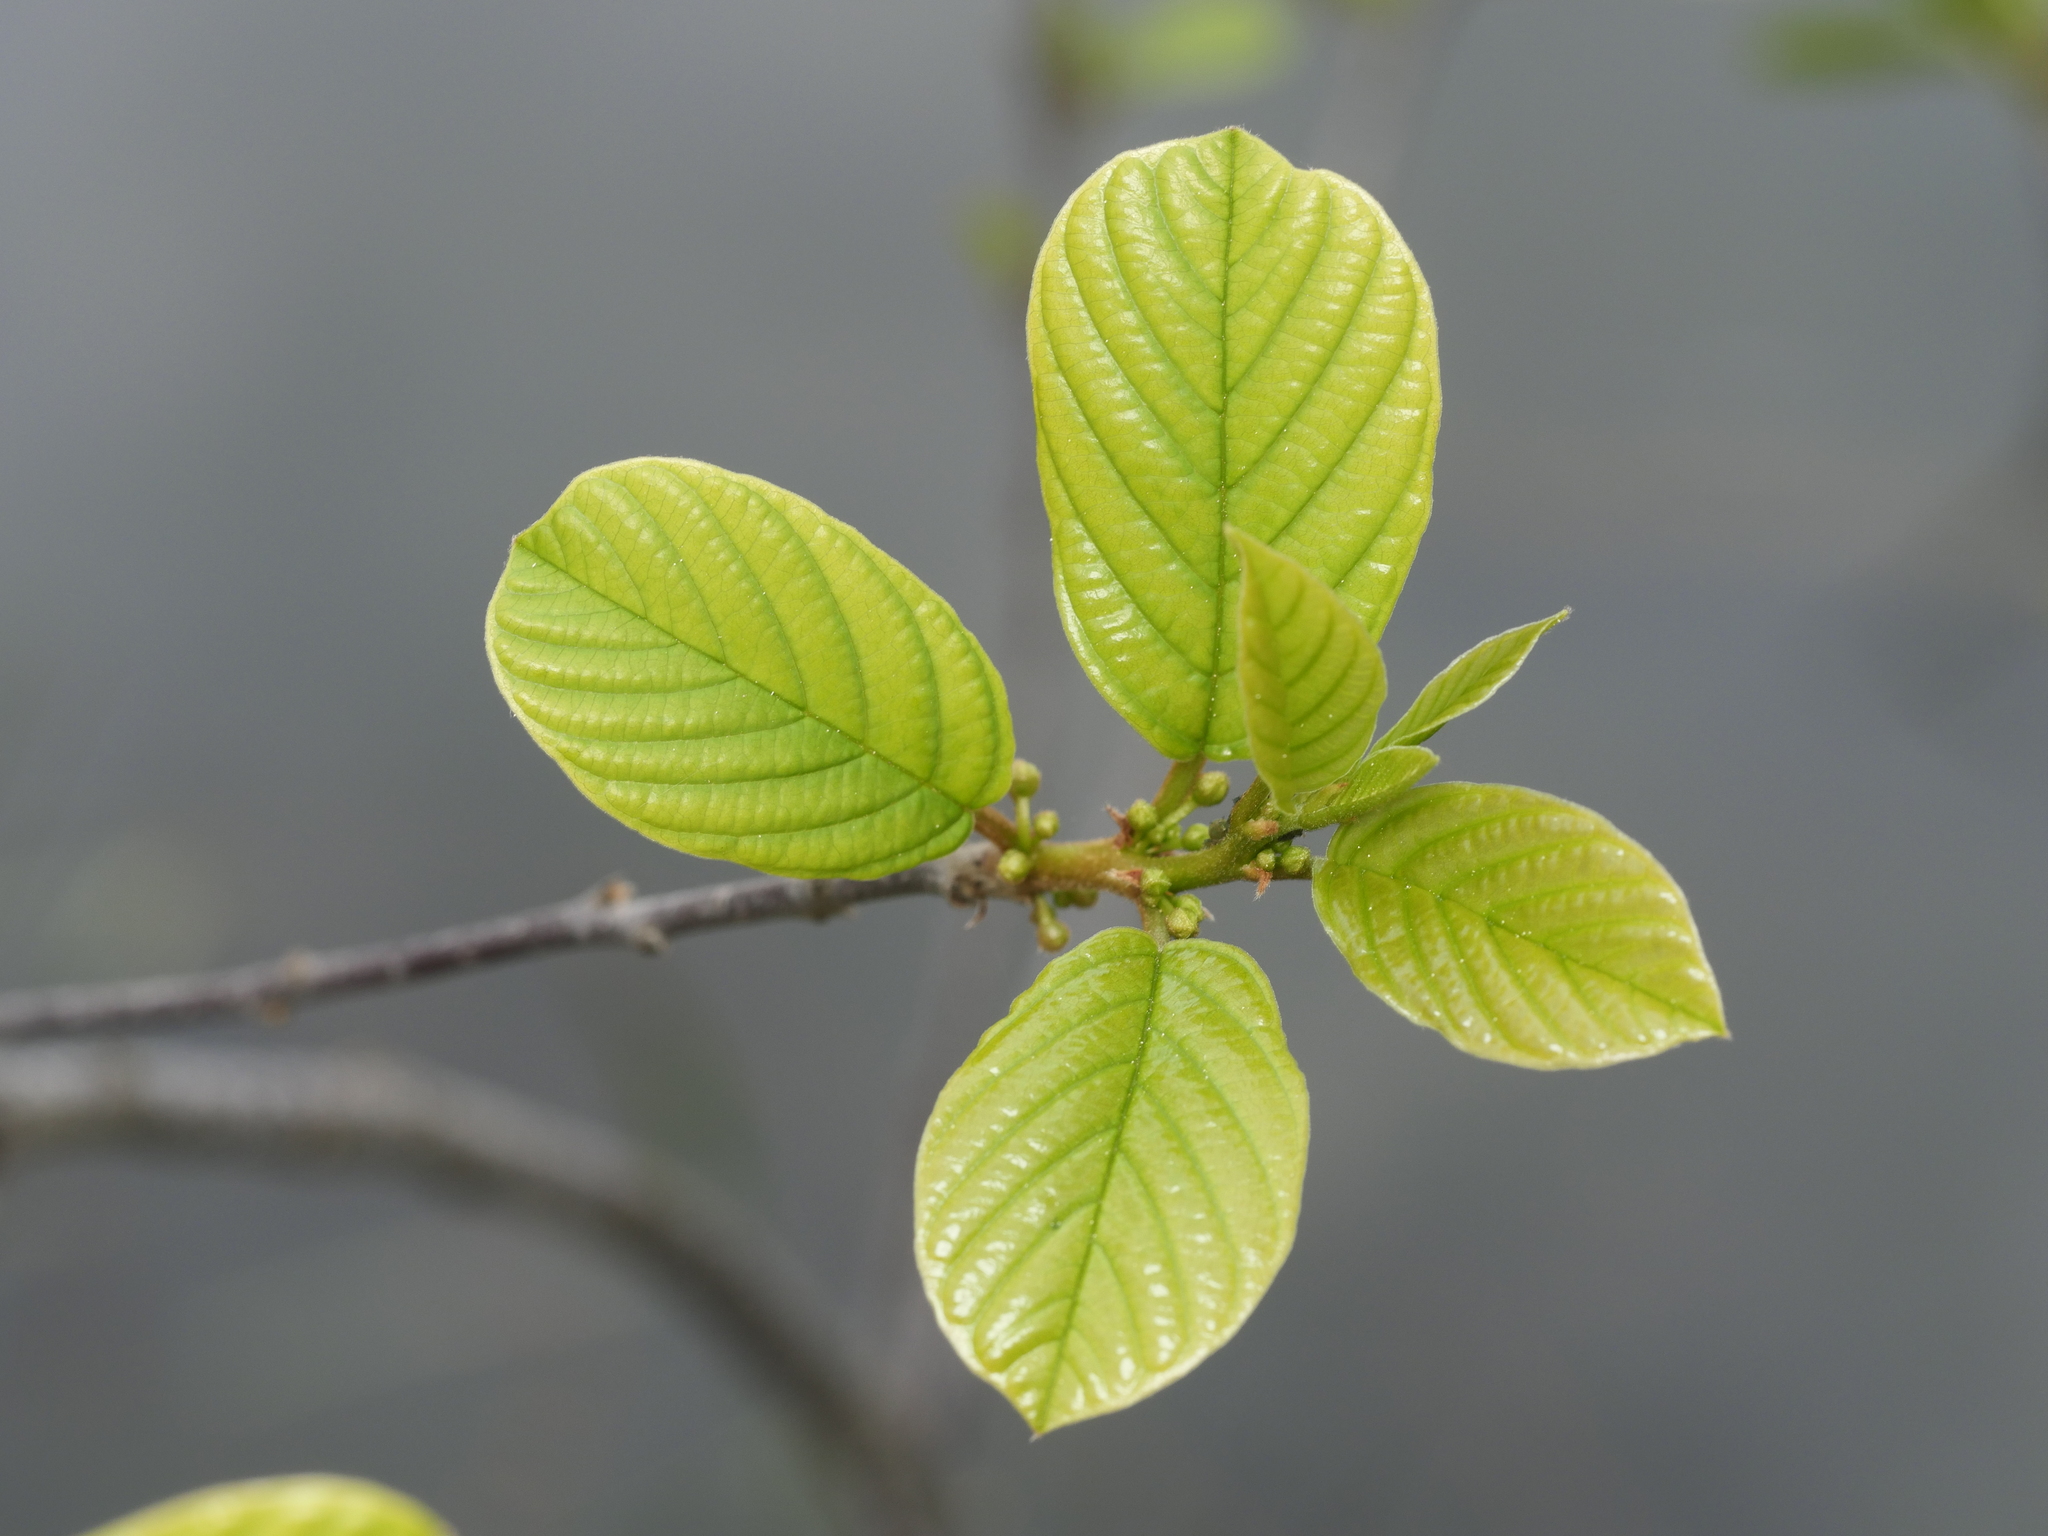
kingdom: Plantae
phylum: Tracheophyta
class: Magnoliopsida
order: Rosales
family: Rhamnaceae
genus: Frangula
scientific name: Frangula alnus
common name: Alder buckthorn
